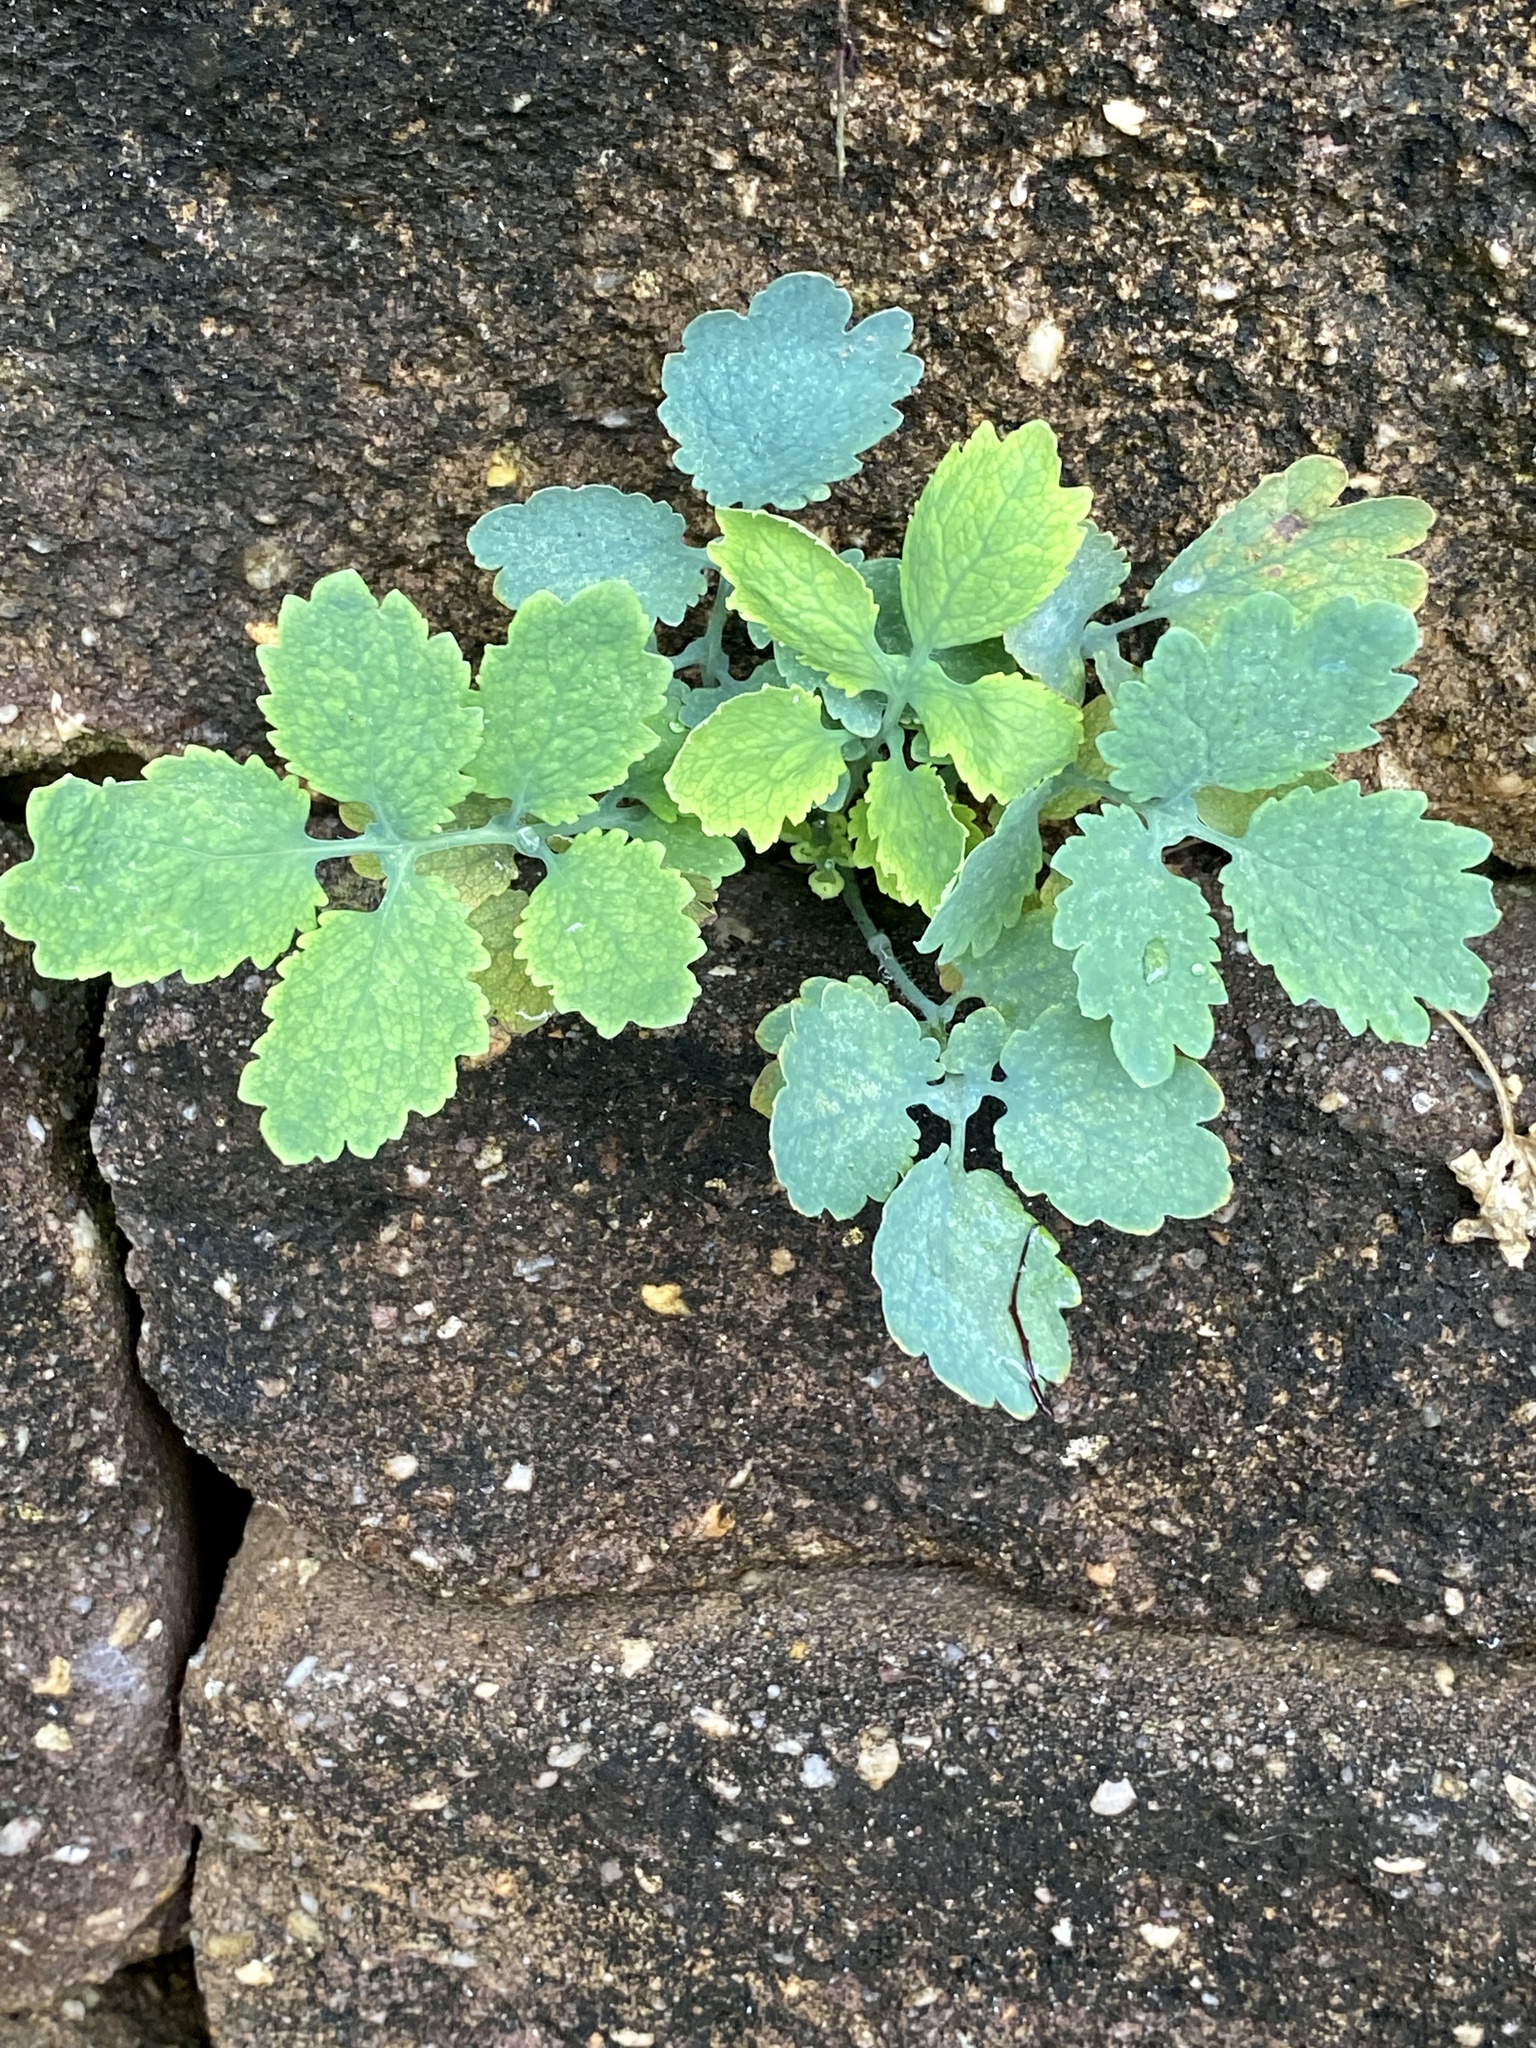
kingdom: Plantae
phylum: Tracheophyta
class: Magnoliopsida
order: Ranunculales
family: Papaveraceae
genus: Chelidonium
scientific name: Chelidonium majus
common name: Greater celandine
